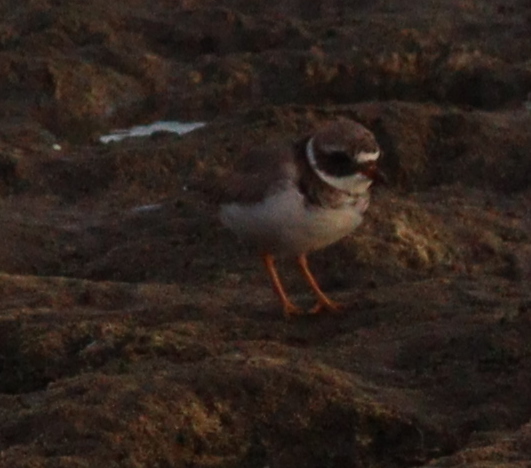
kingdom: Animalia
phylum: Chordata
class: Aves
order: Charadriiformes
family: Charadriidae
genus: Charadrius
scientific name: Charadrius hiaticula
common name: Common ringed plover
